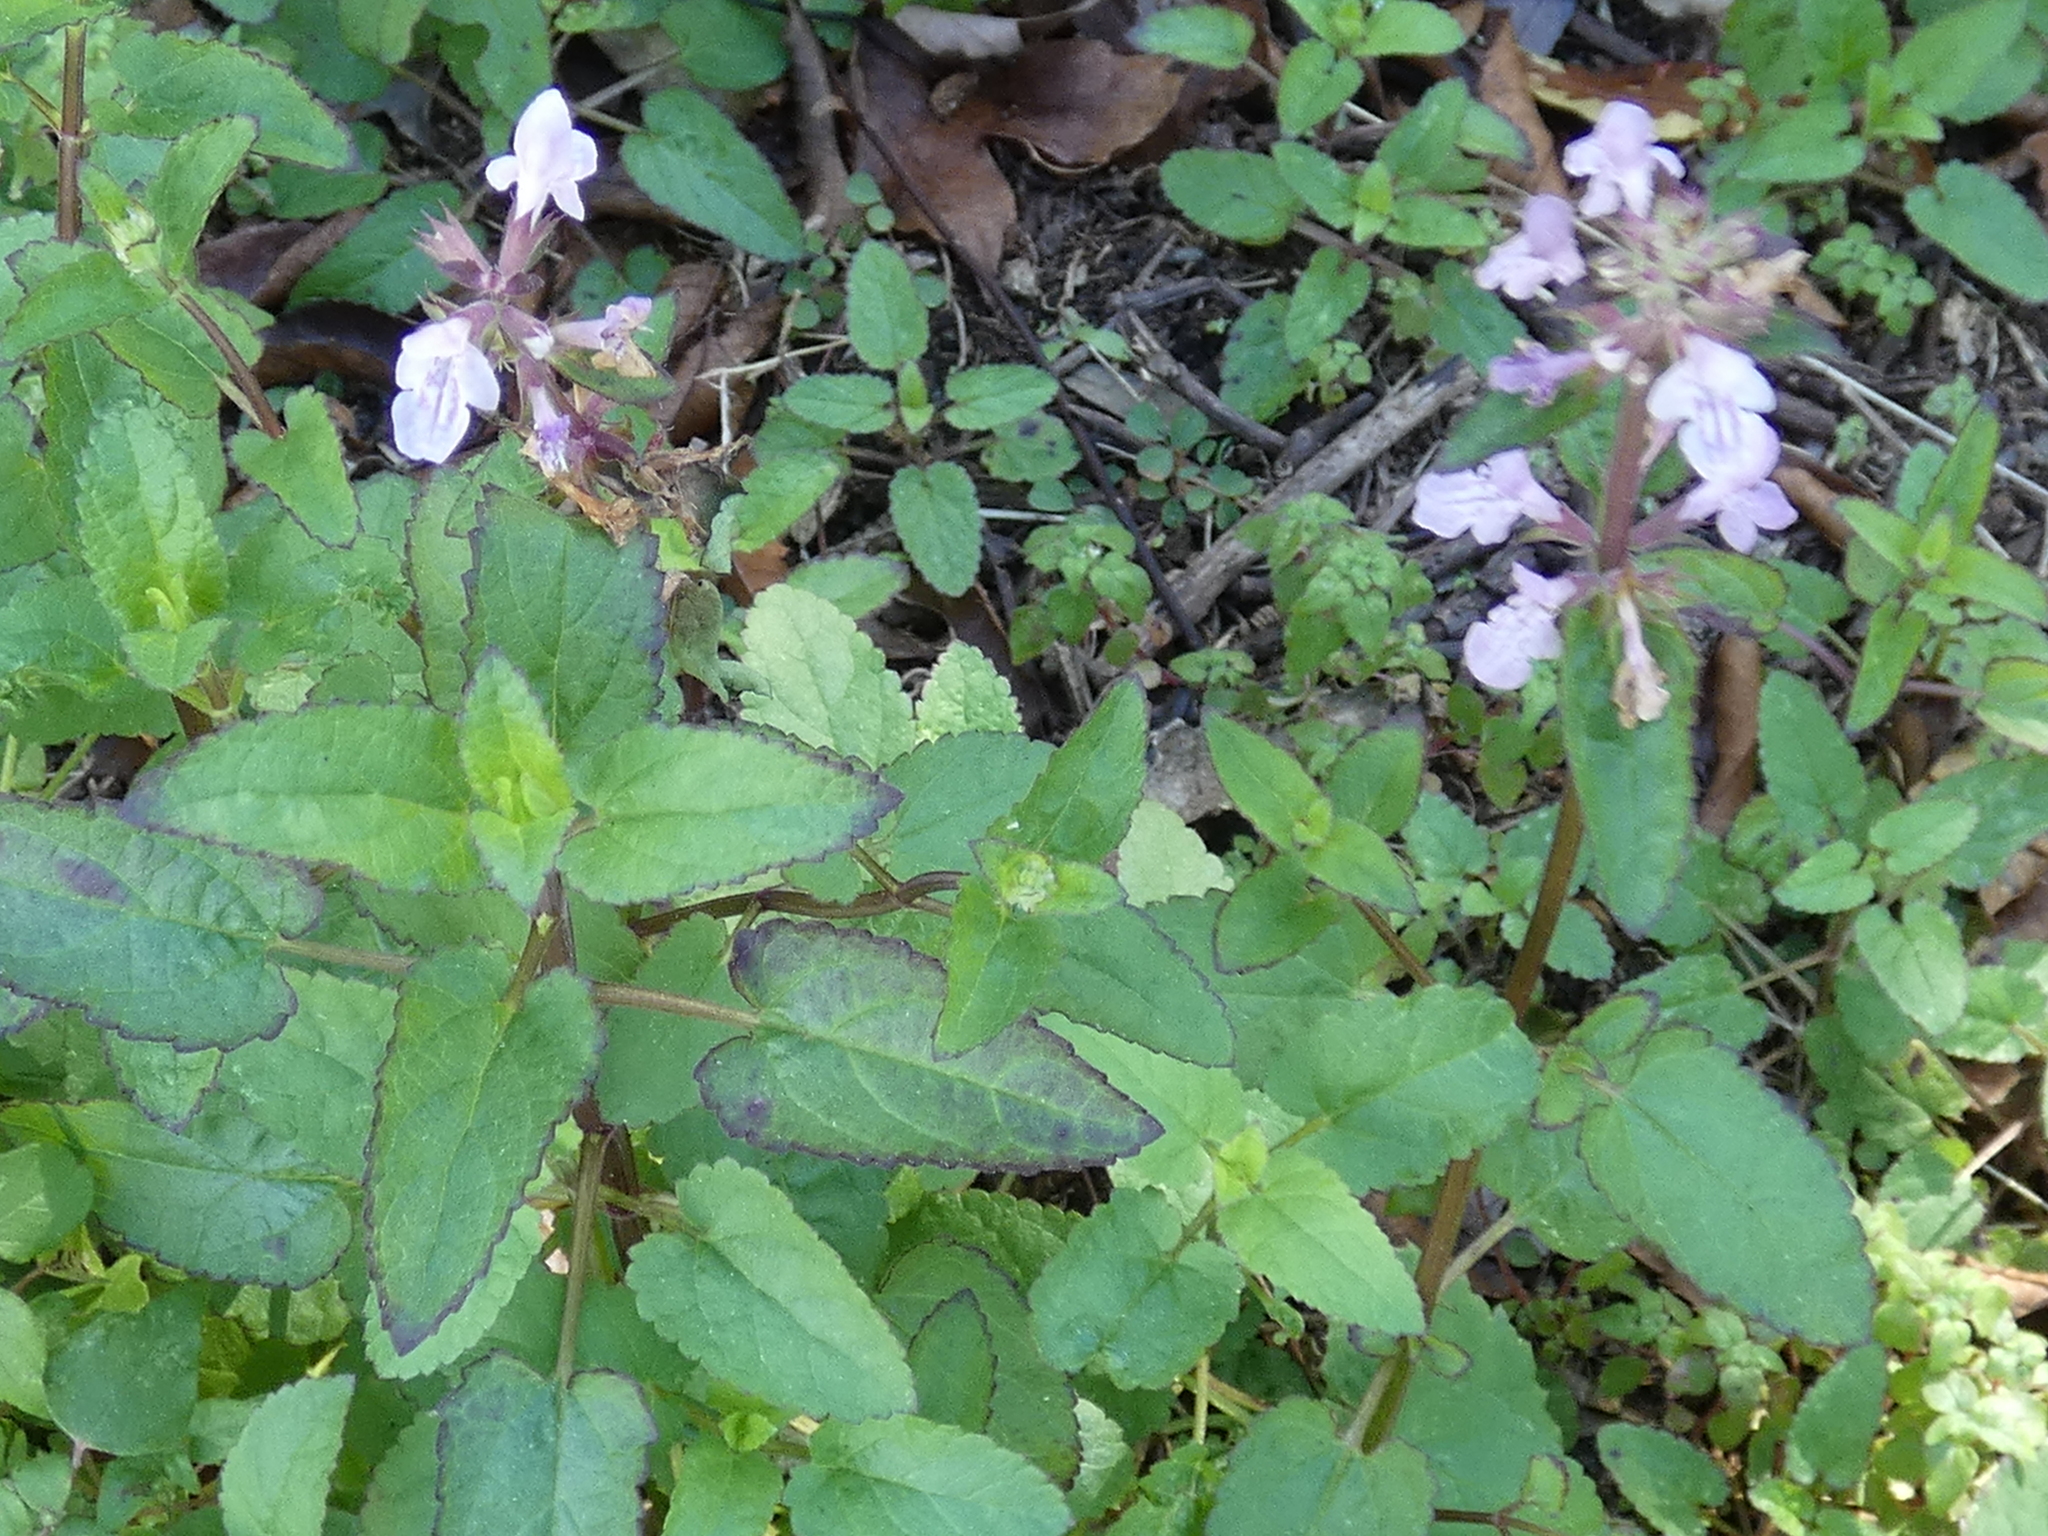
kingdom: Plantae
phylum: Tracheophyta
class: Magnoliopsida
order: Lamiales
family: Lamiaceae
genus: Stachys
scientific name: Stachys floridana
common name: Florida betony
